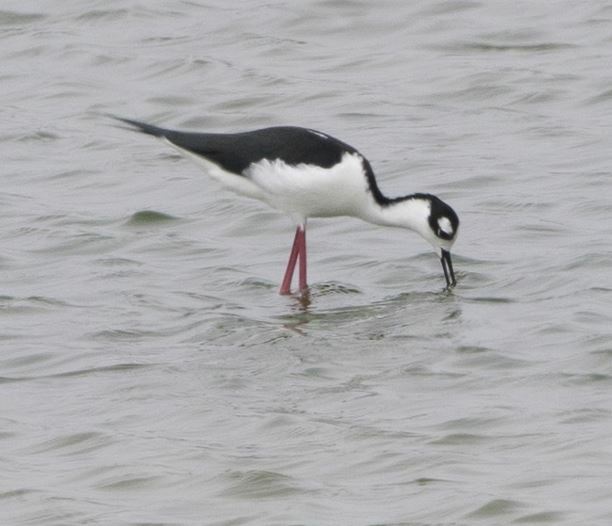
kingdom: Animalia
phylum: Chordata
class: Aves
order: Charadriiformes
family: Recurvirostridae
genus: Himantopus
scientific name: Himantopus mexicanus
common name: Black-necked stilt
